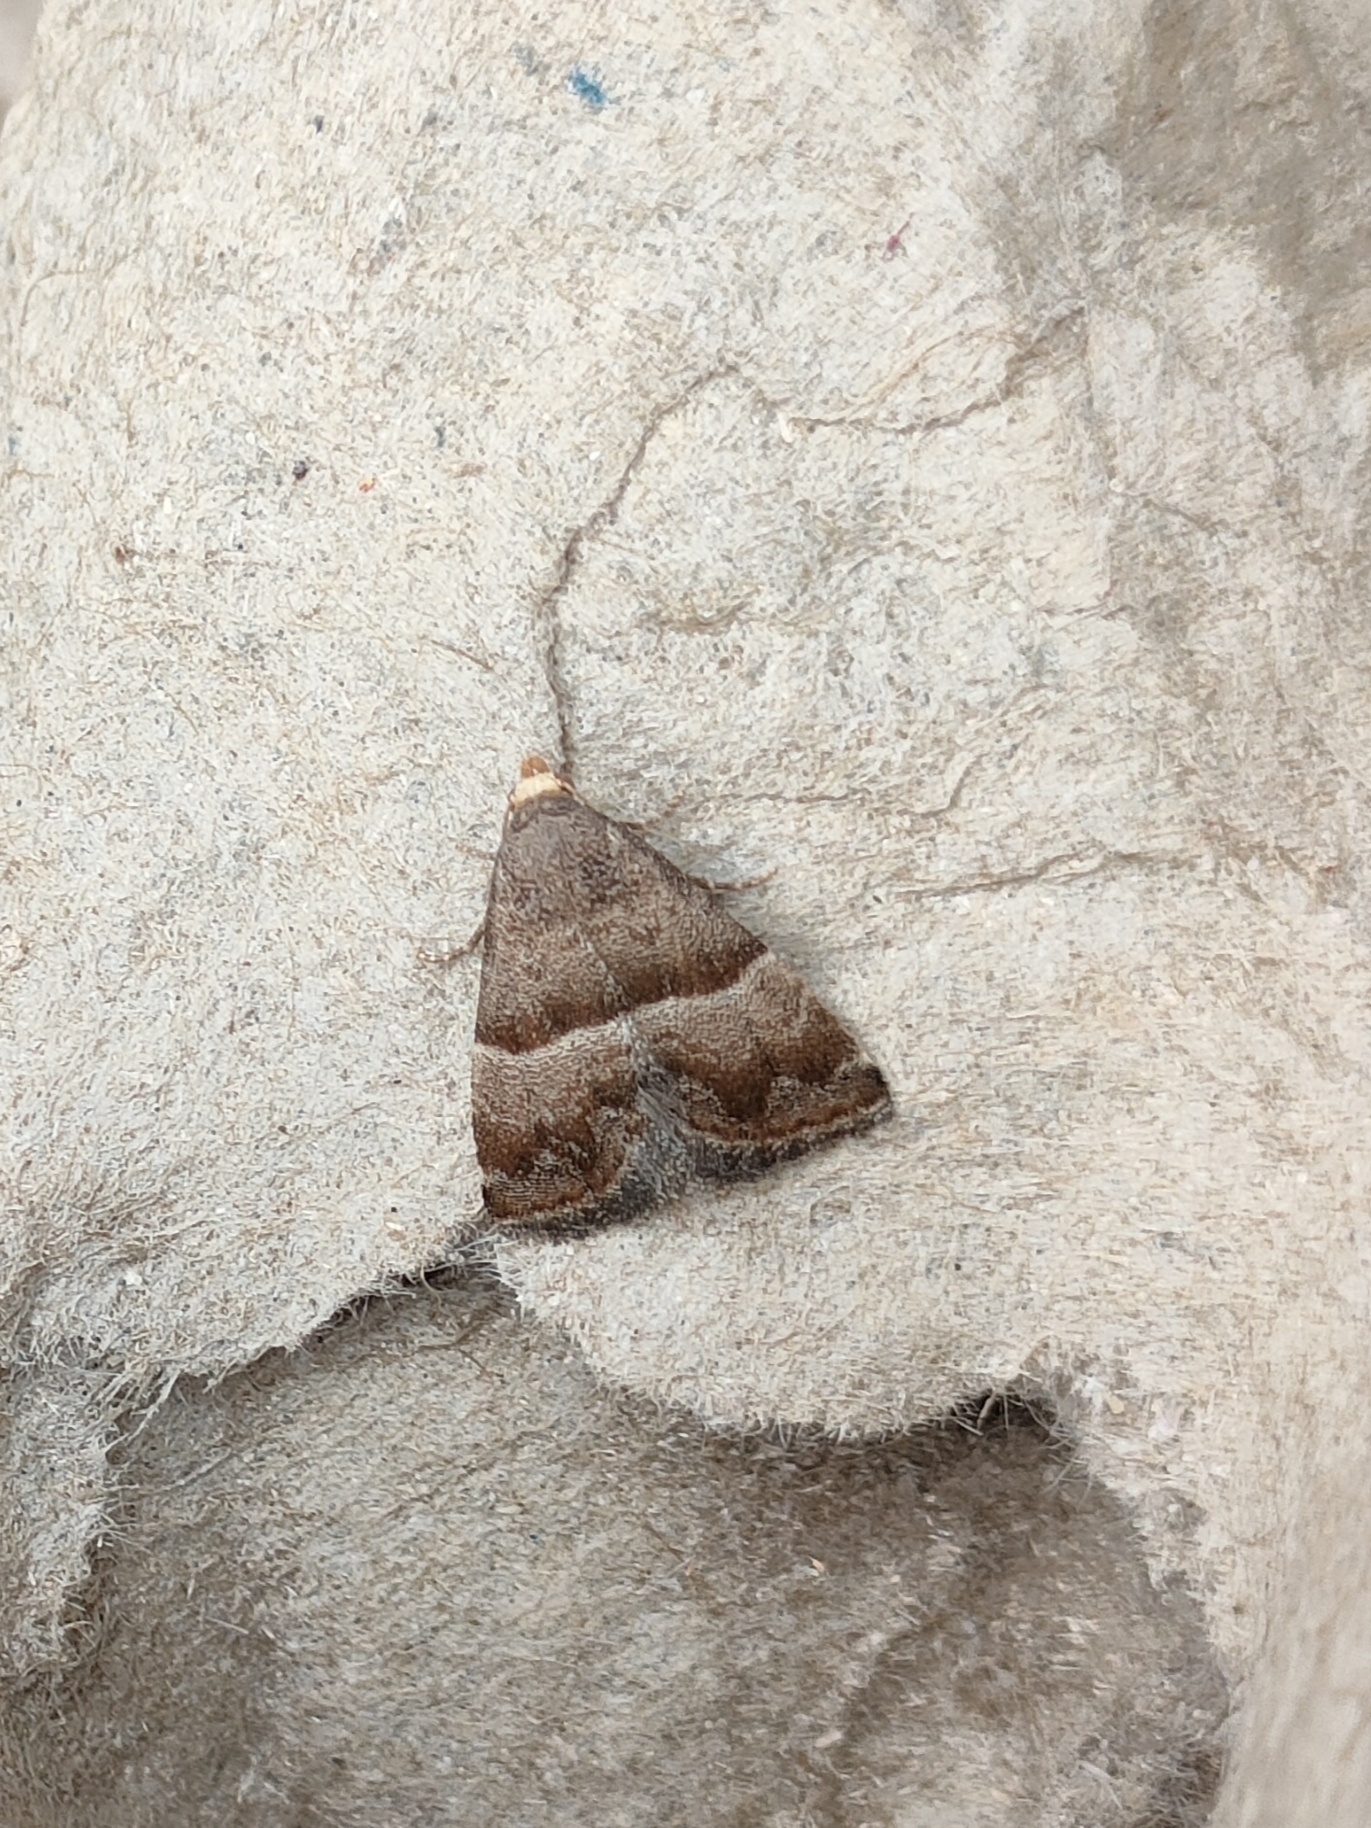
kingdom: Animalia
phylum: Arthropoda
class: Insecta
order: Lepidoptera
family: Noctuidae
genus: Odice
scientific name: Odice jucunda
